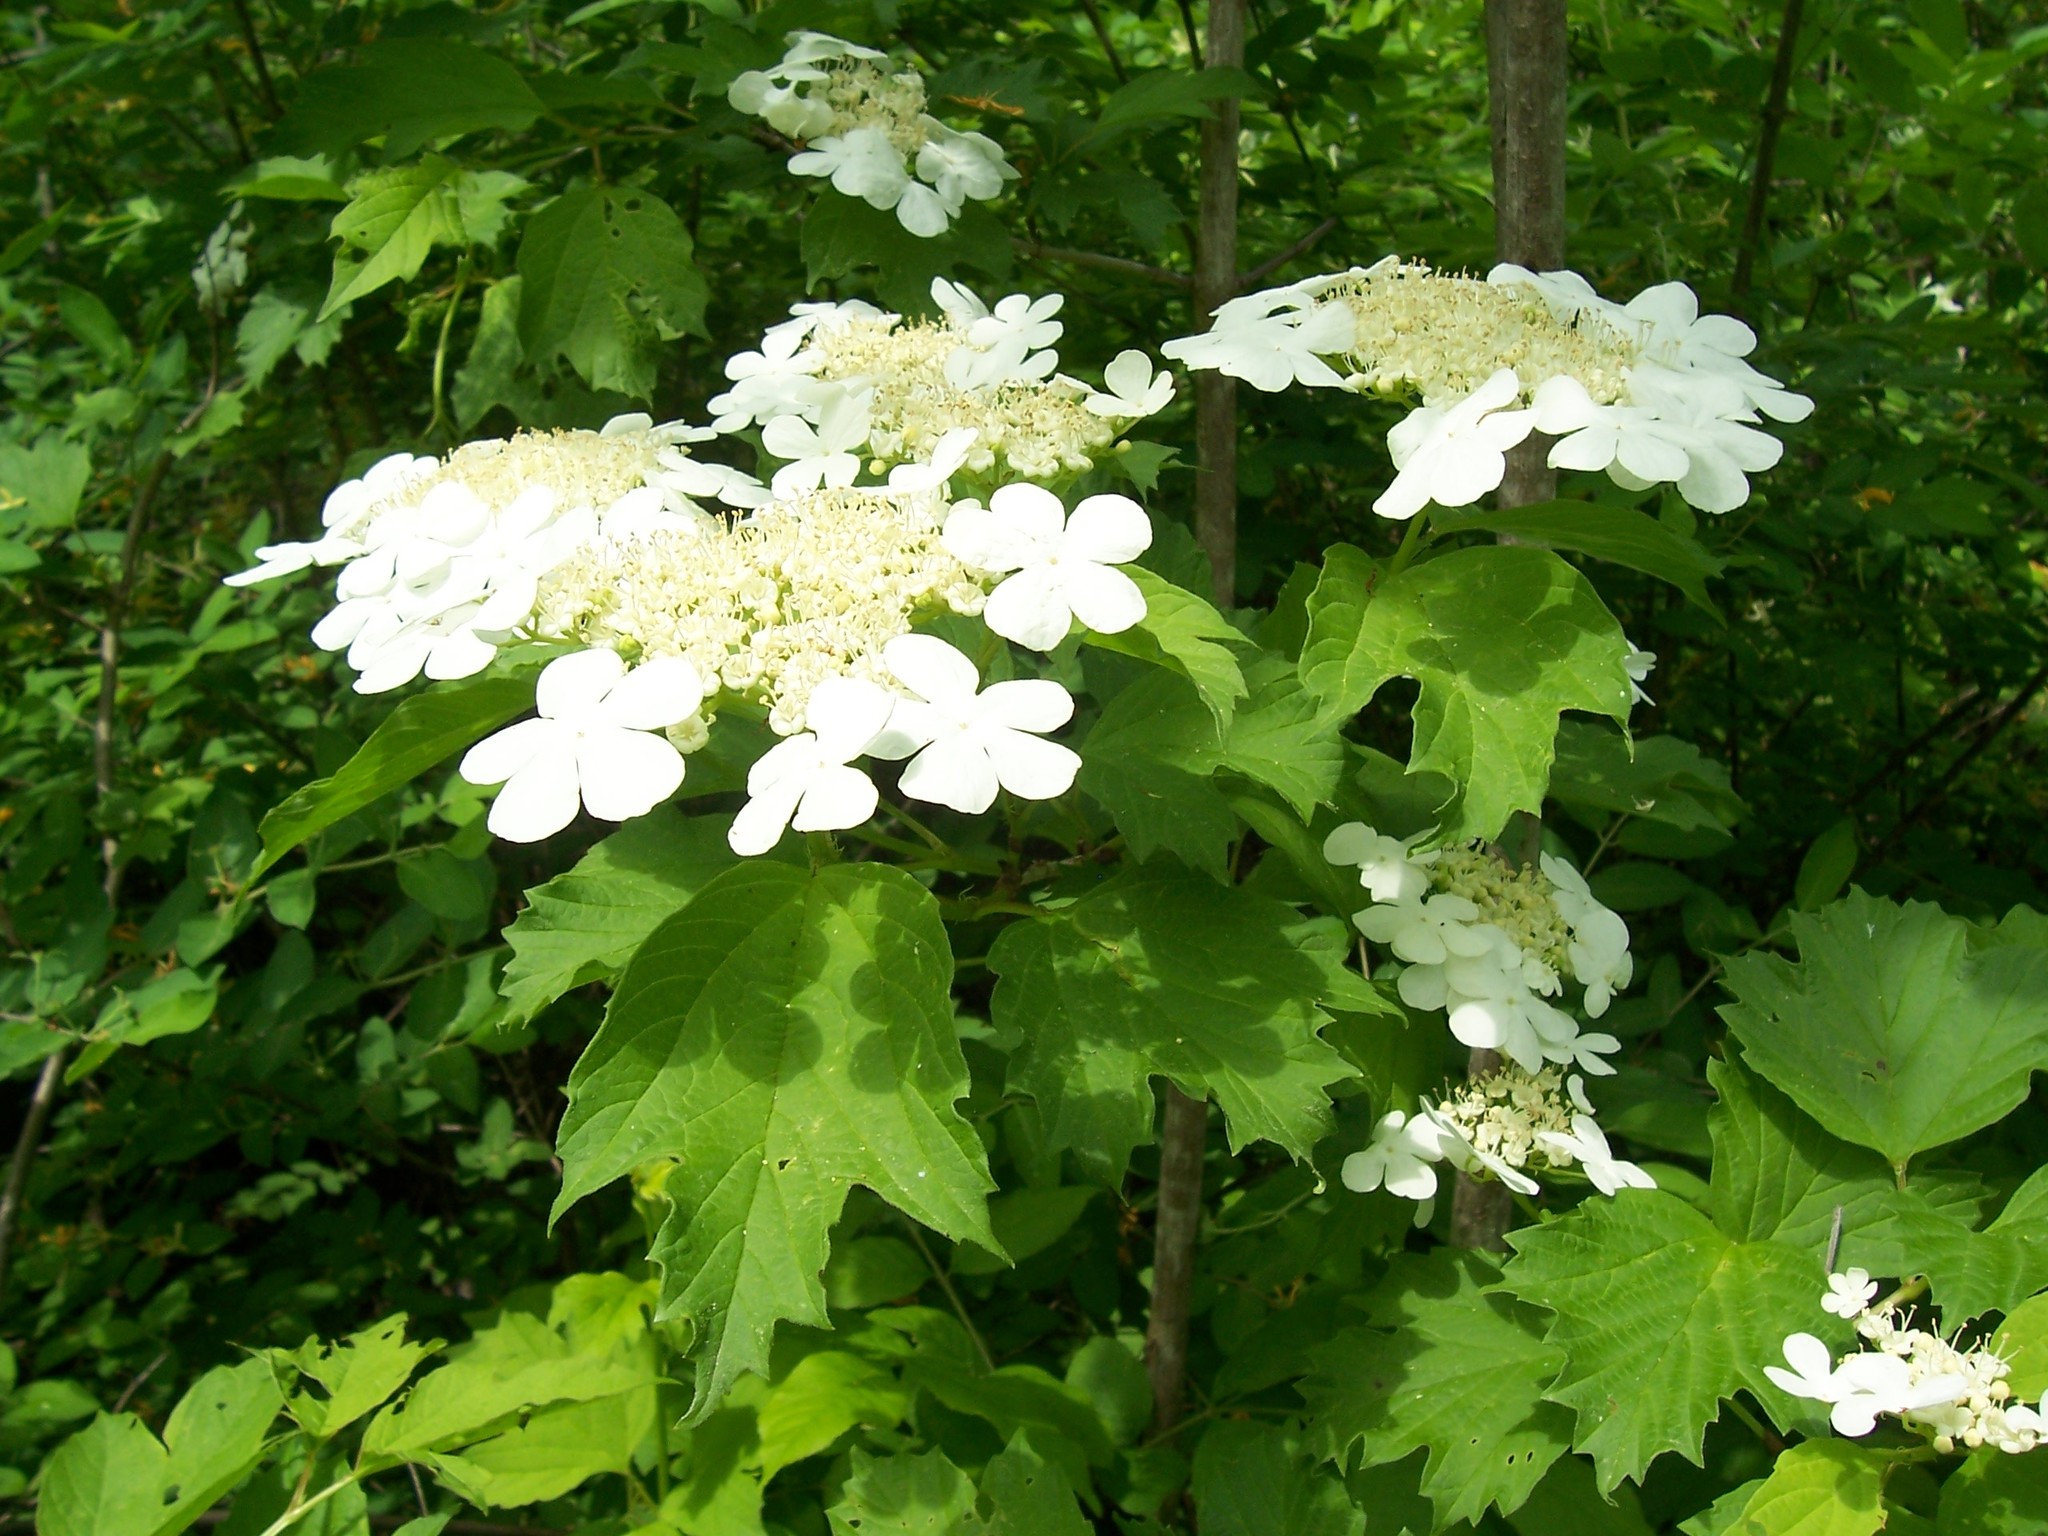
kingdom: Plantae
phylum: Tracheophyta
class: Magnoliopsida
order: Dipsacales
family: Viburnaceae
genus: Viburnum
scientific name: Viburnum trilobum
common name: American cranberrybush
